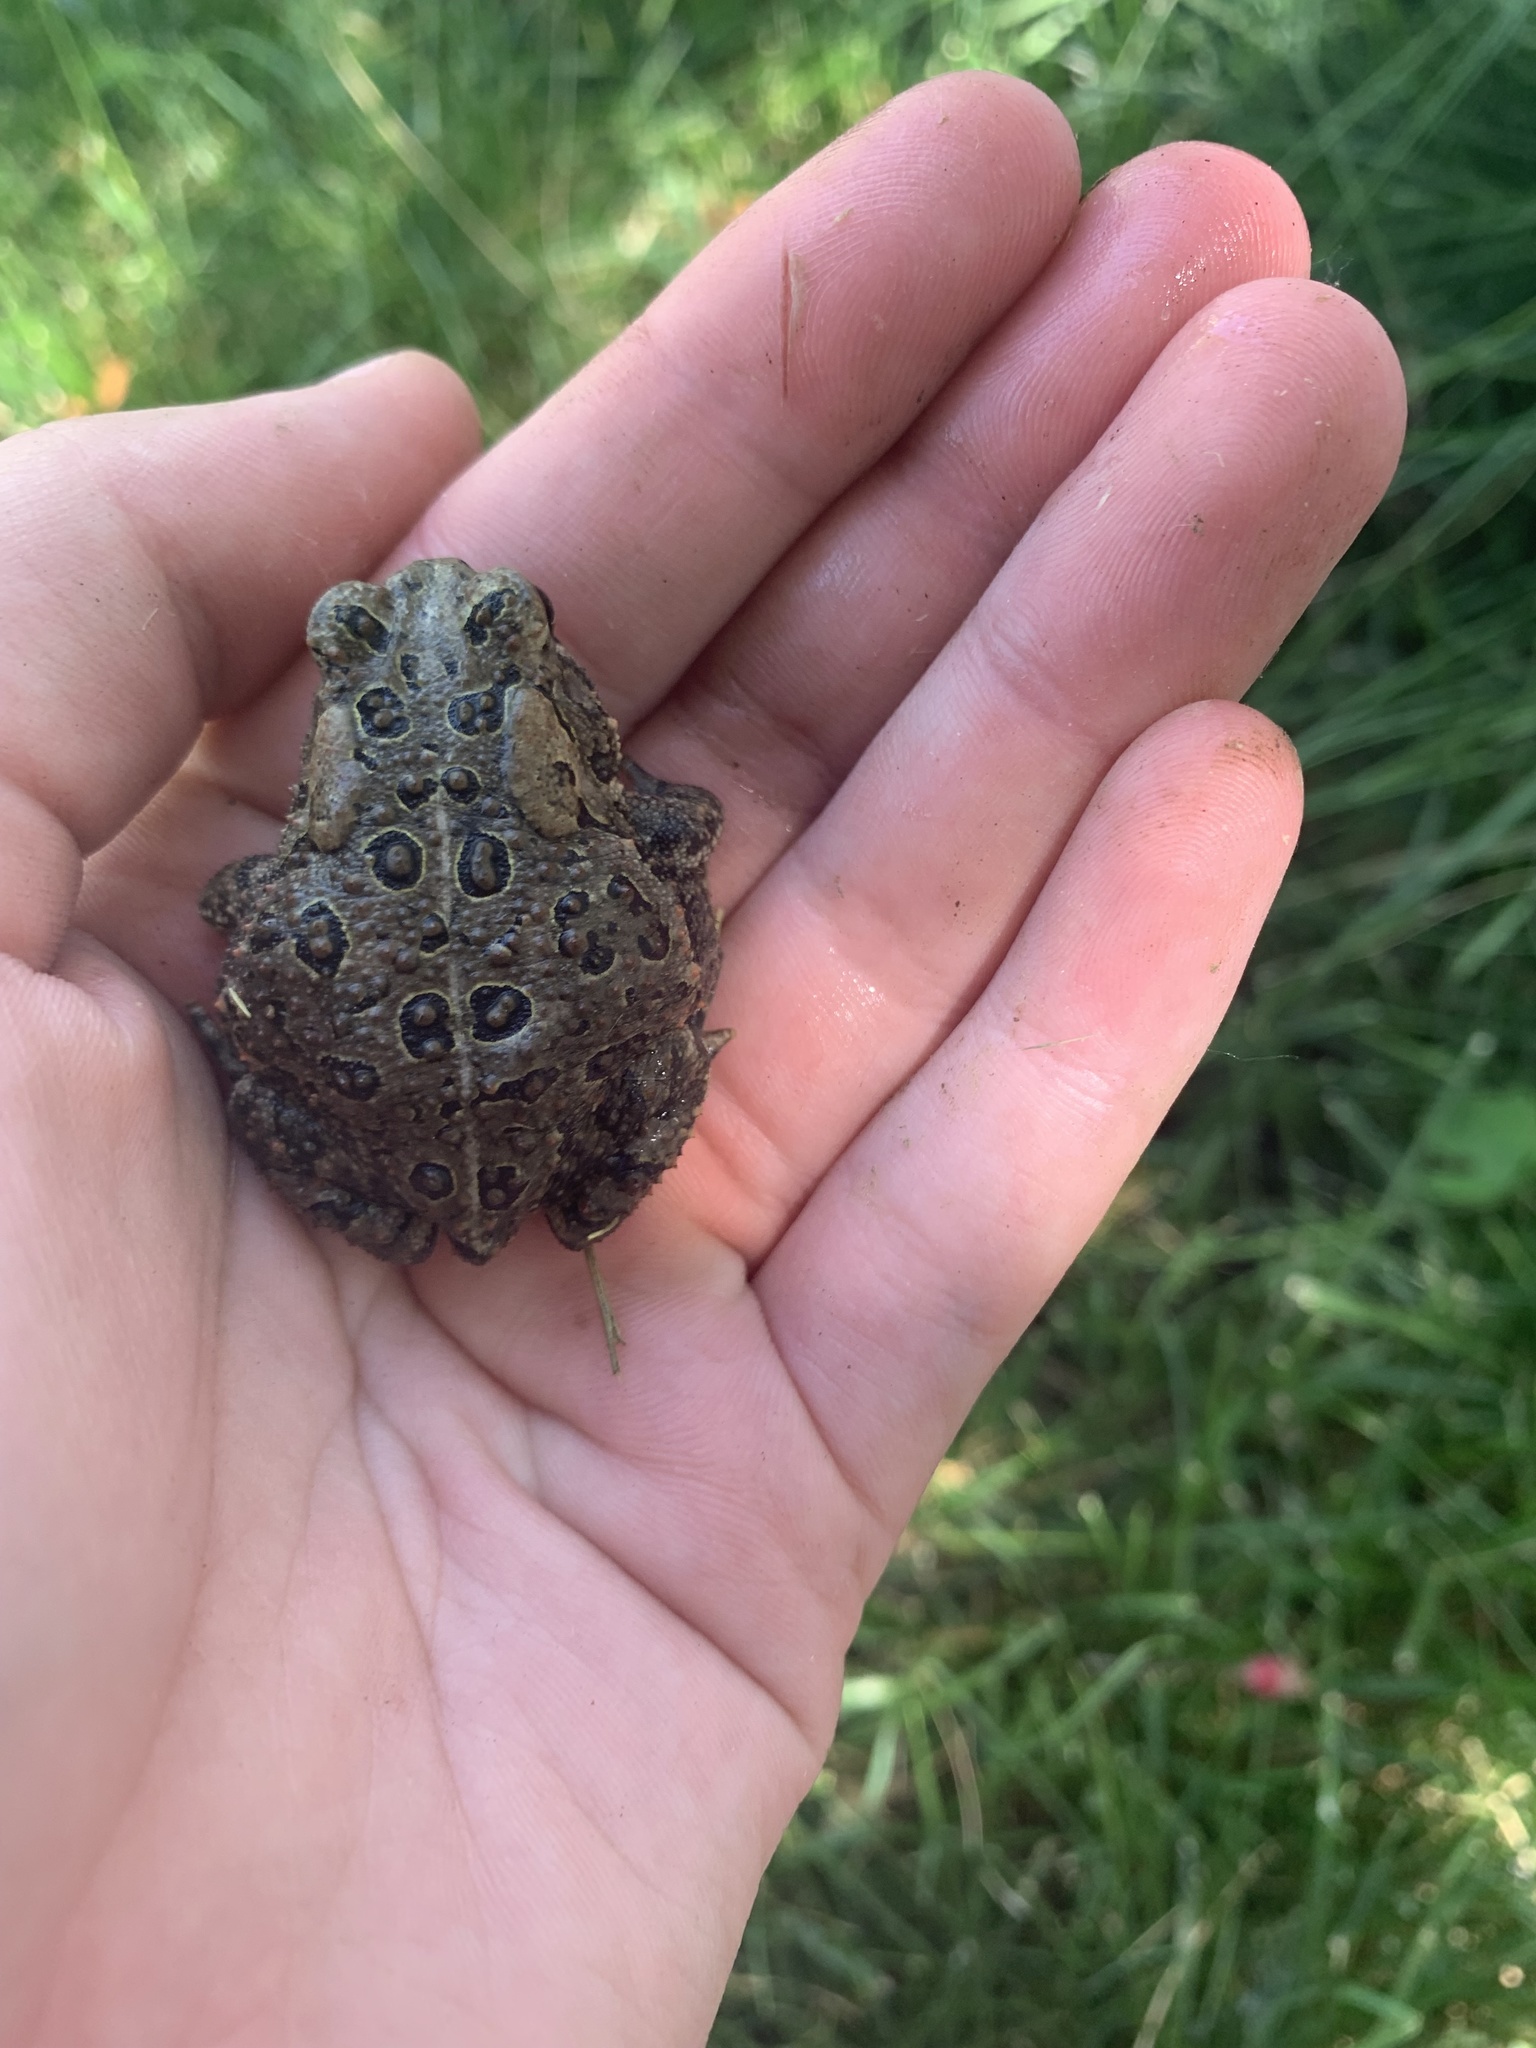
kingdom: Animalia
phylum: Chordata
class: Amphibia
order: Anura
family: Bufonidae
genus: Anaxyrus
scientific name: Anaxyrus americanus
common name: American toad
